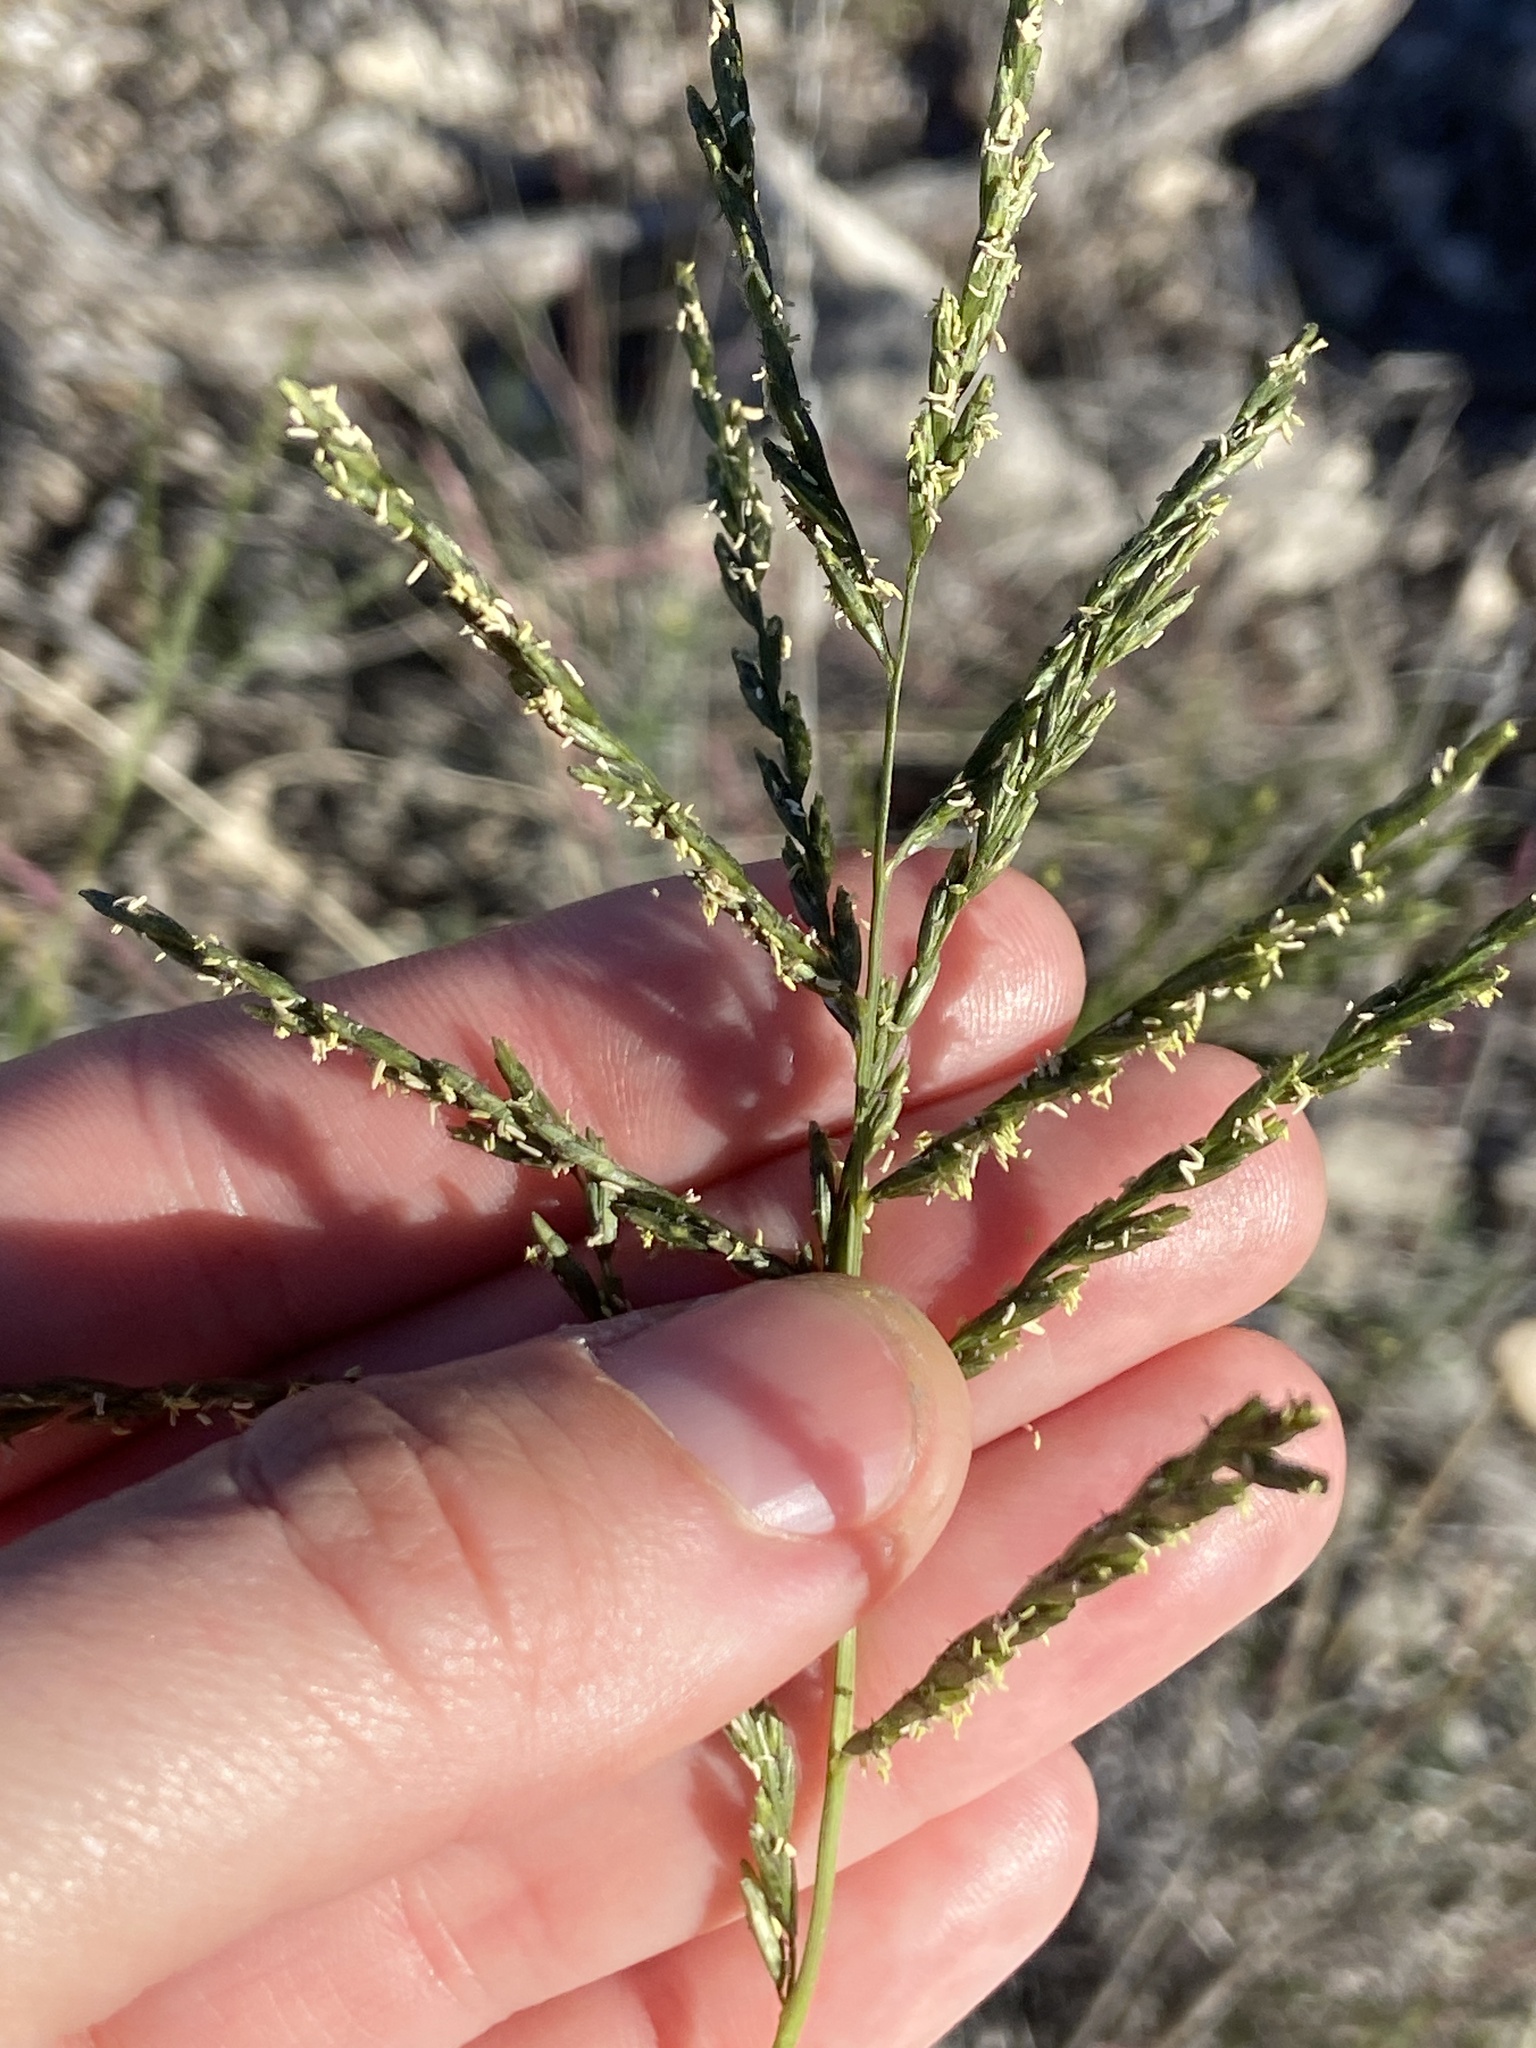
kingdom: Plantae
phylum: Tracheophyta
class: Liliopsida
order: Poales
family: Poaceae
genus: Disakisperma
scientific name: Disakisperma dubium
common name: Green sprangletop
